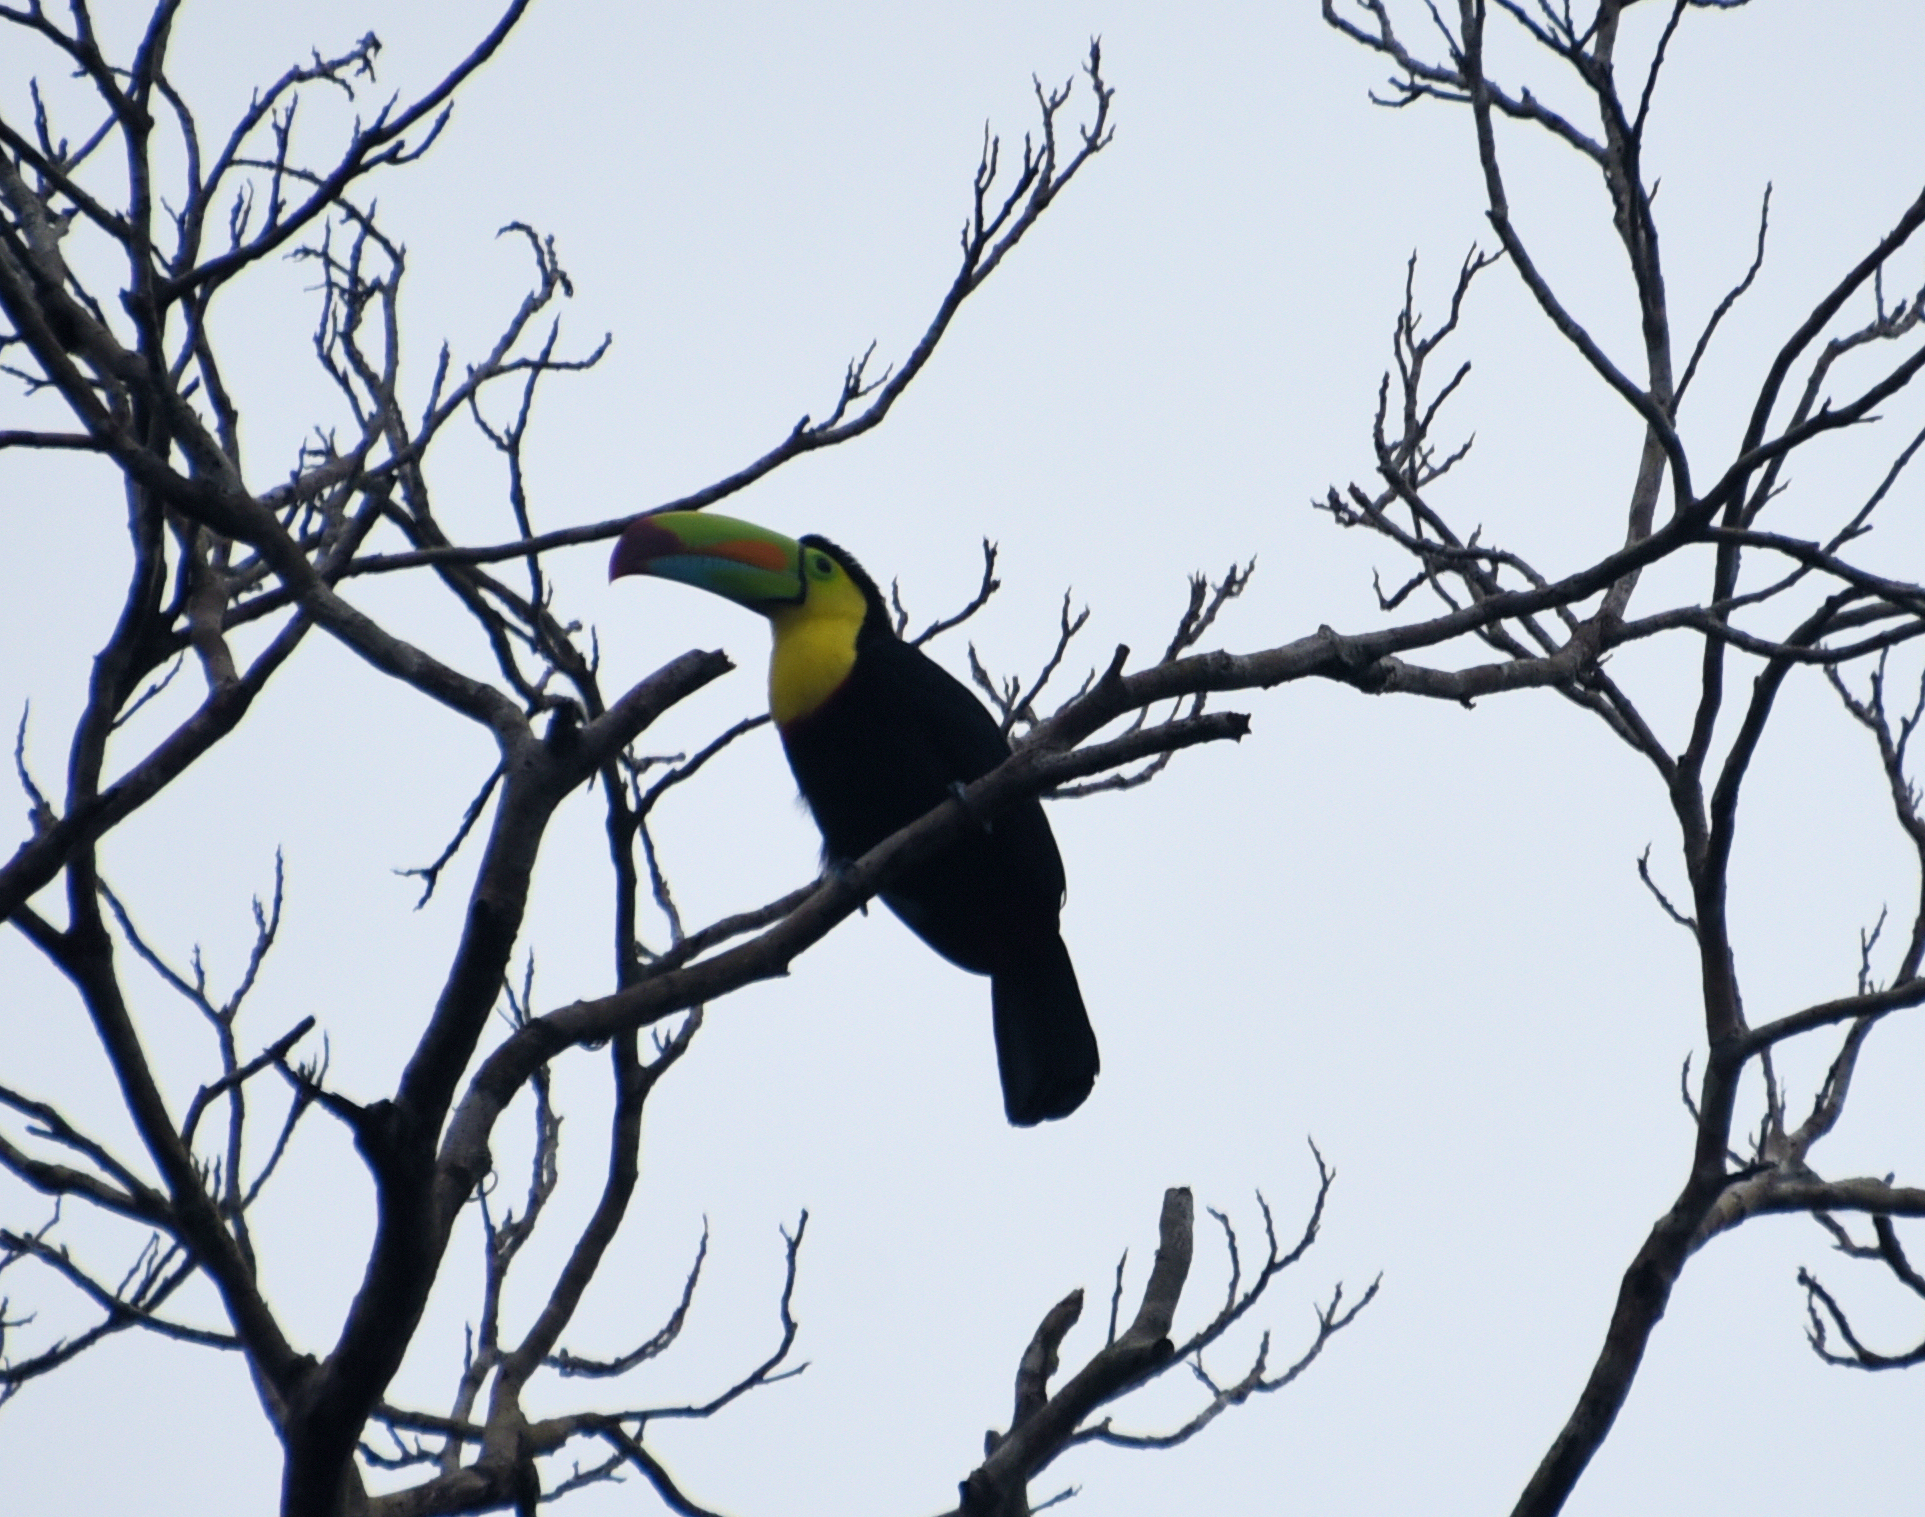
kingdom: Animalia
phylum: Chordata
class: Aves
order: Piciformes
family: Ramphastidae
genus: Ramphastos
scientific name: Ramphastos sulfuratus
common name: Keel-billed toucan
